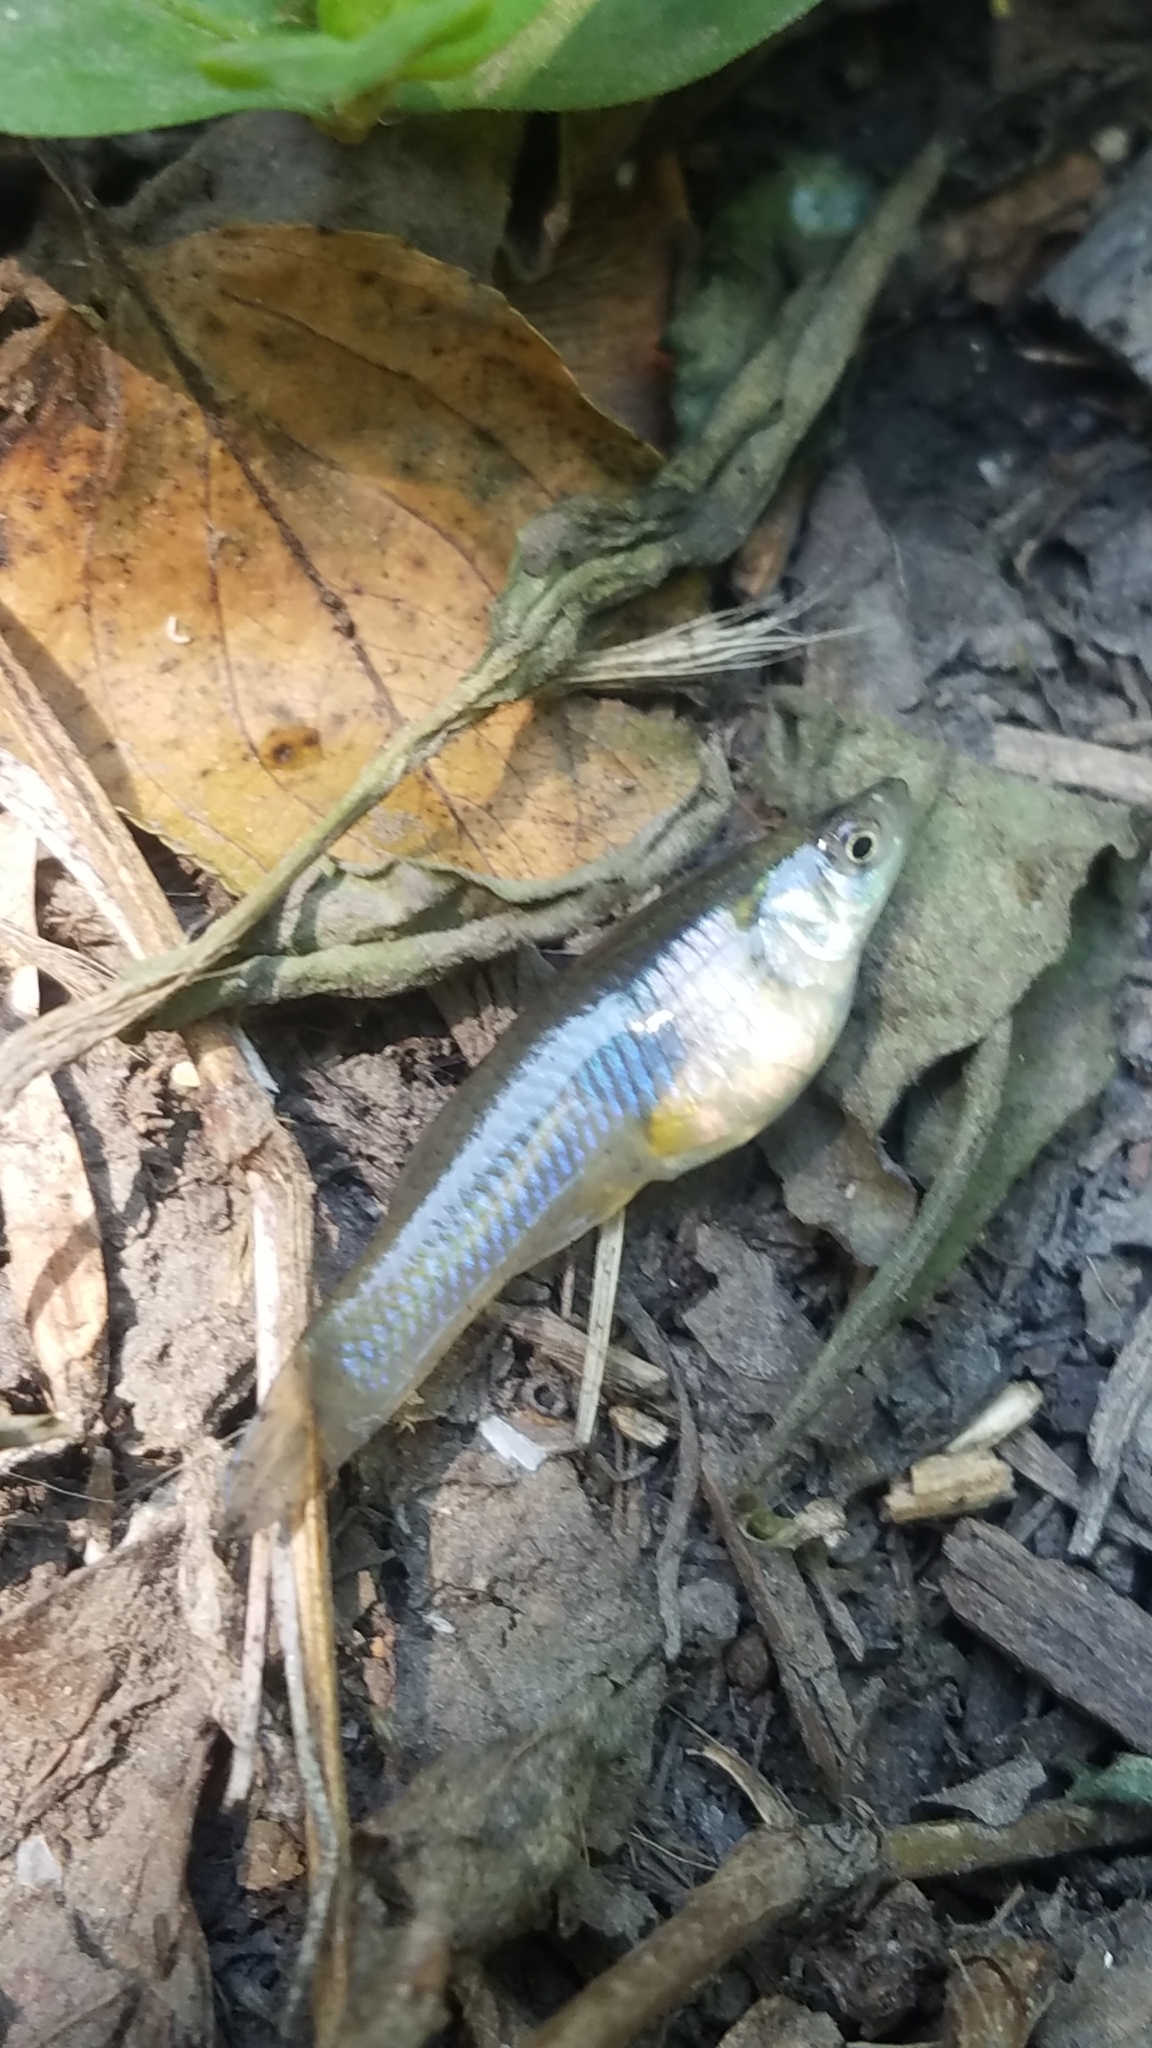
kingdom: Animalia
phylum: Chordata
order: Cyprinodontiformes
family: Poeciliidae
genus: Gambusia
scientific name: Gambusia affinis
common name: Mosquitofish
